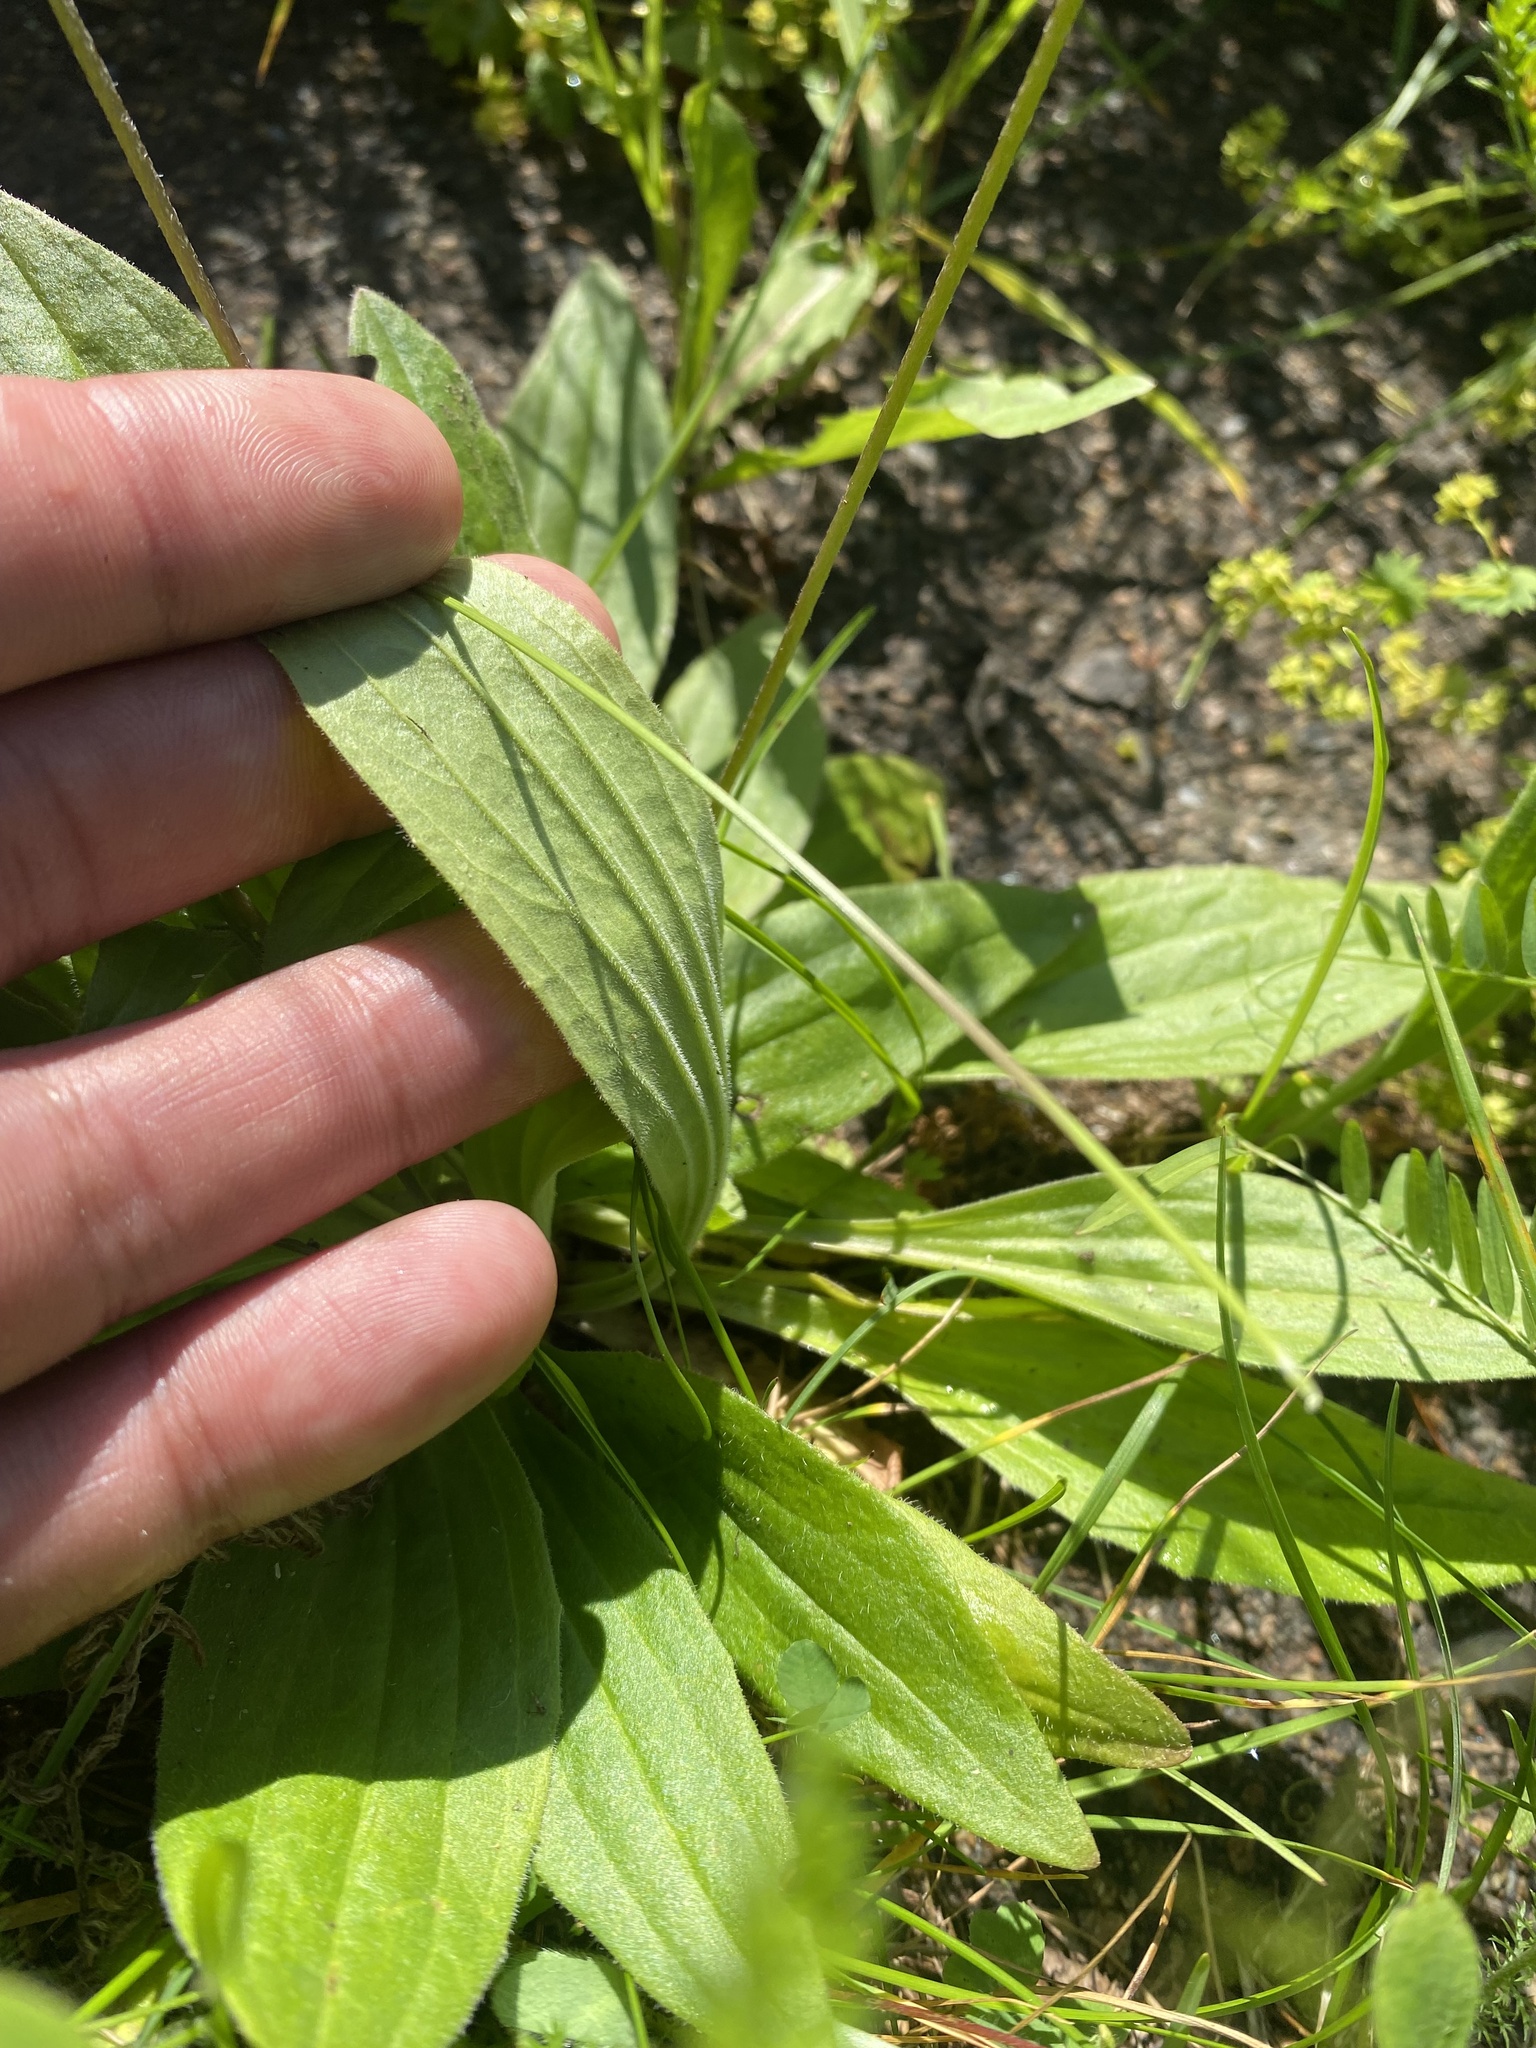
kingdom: Plantae
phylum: Tracheophyta
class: Magnoliopsida
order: Lamiales
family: Plantaginaceae
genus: Plantago
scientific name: Plantago media
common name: Hoary plantain
